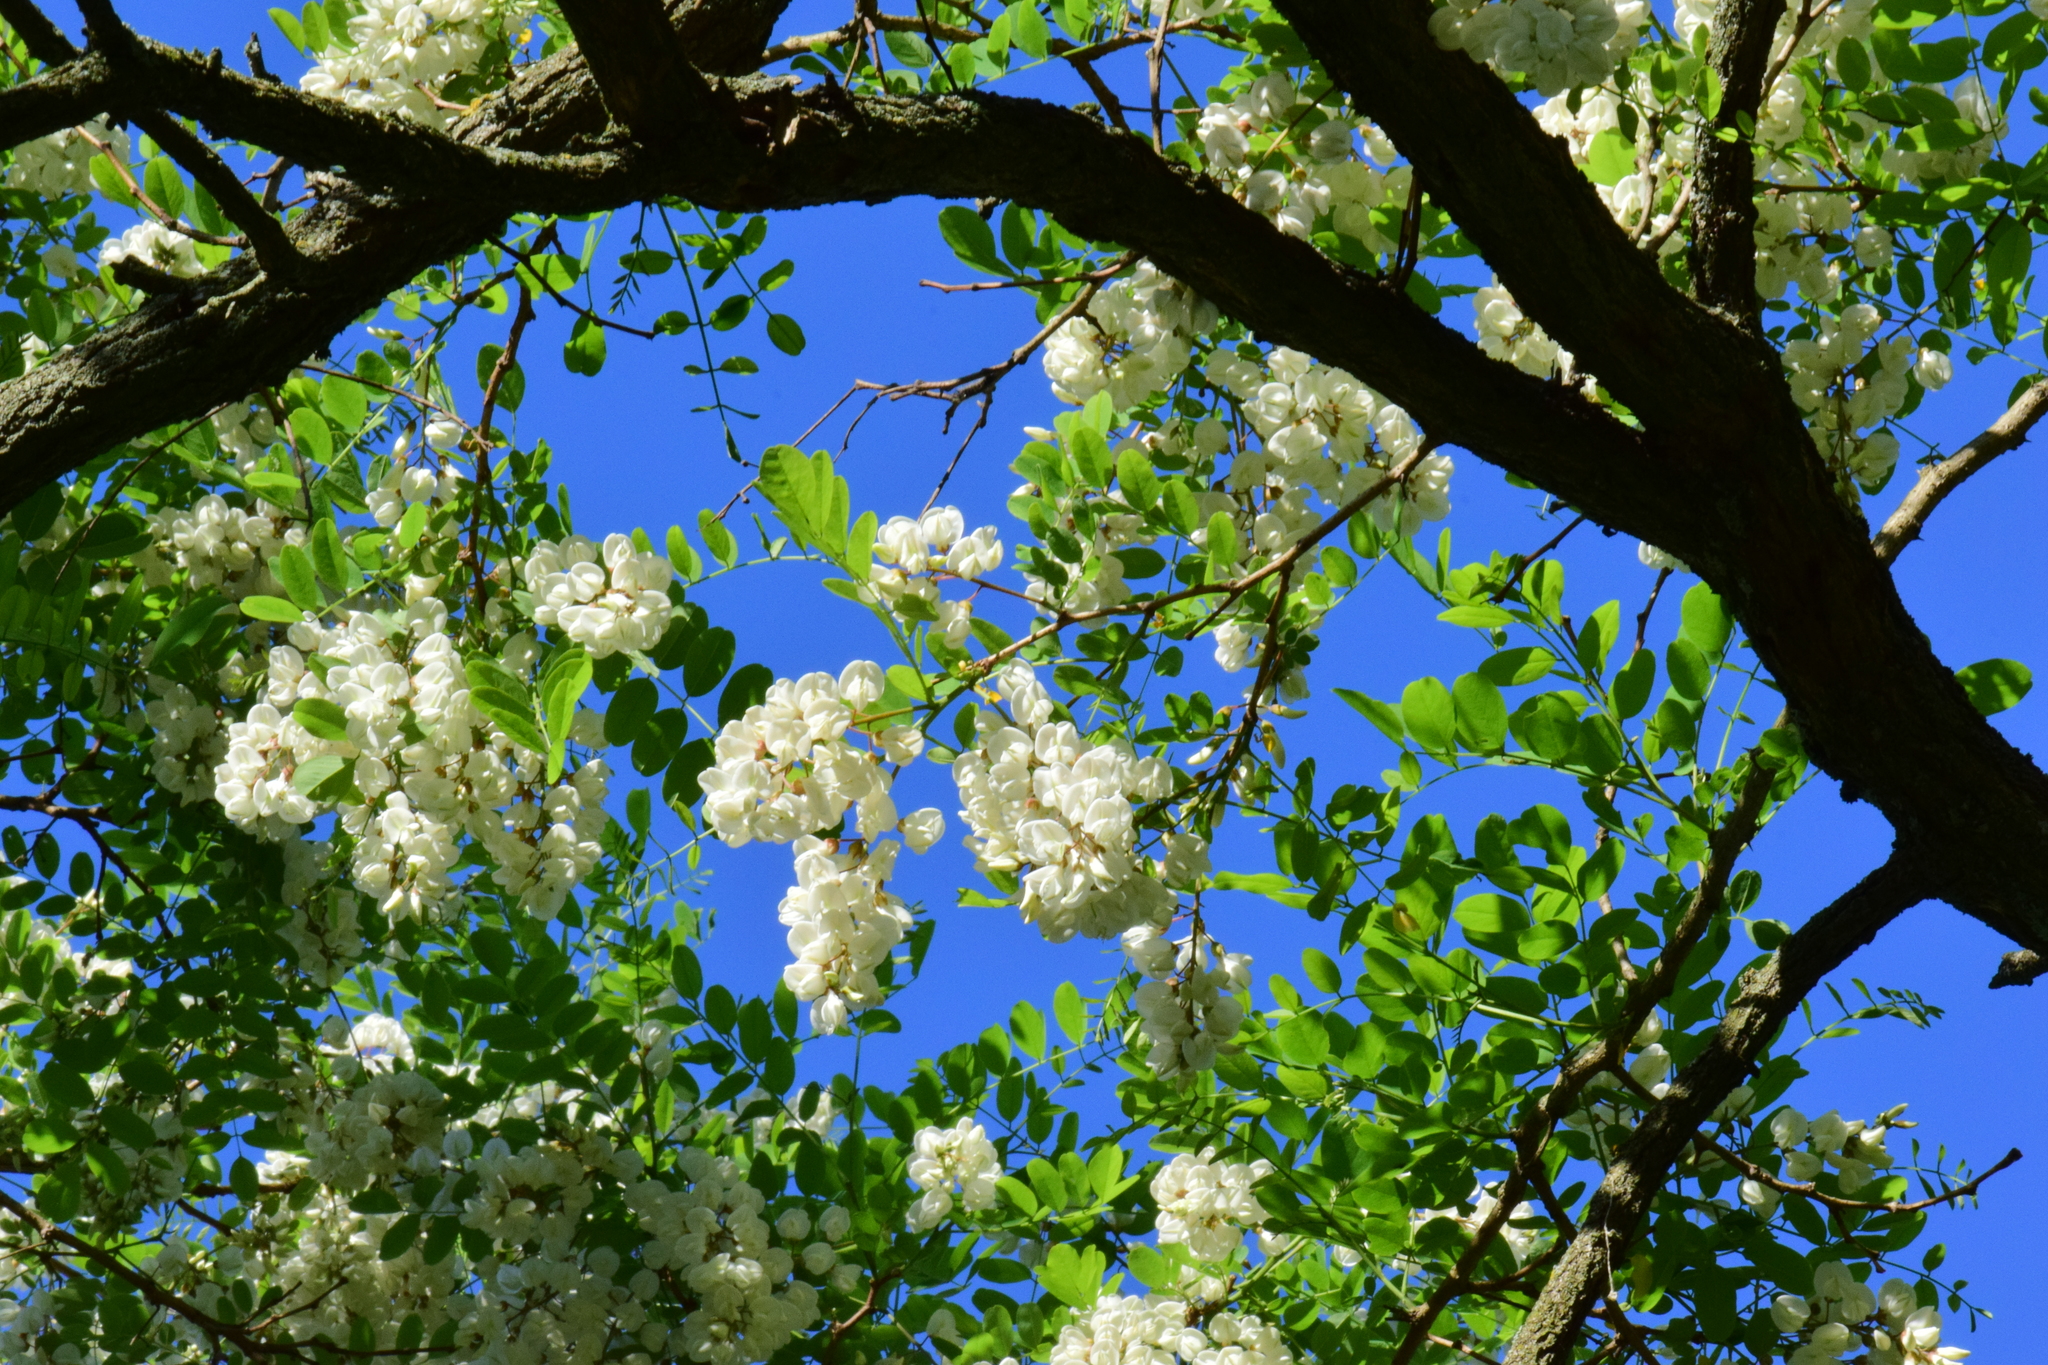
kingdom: Plantae
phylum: Tracheophyta
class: Magnoliopsida
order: Fabales
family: Fabaceae
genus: Robinia
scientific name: Robinia pseudoacacia
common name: Black locust
